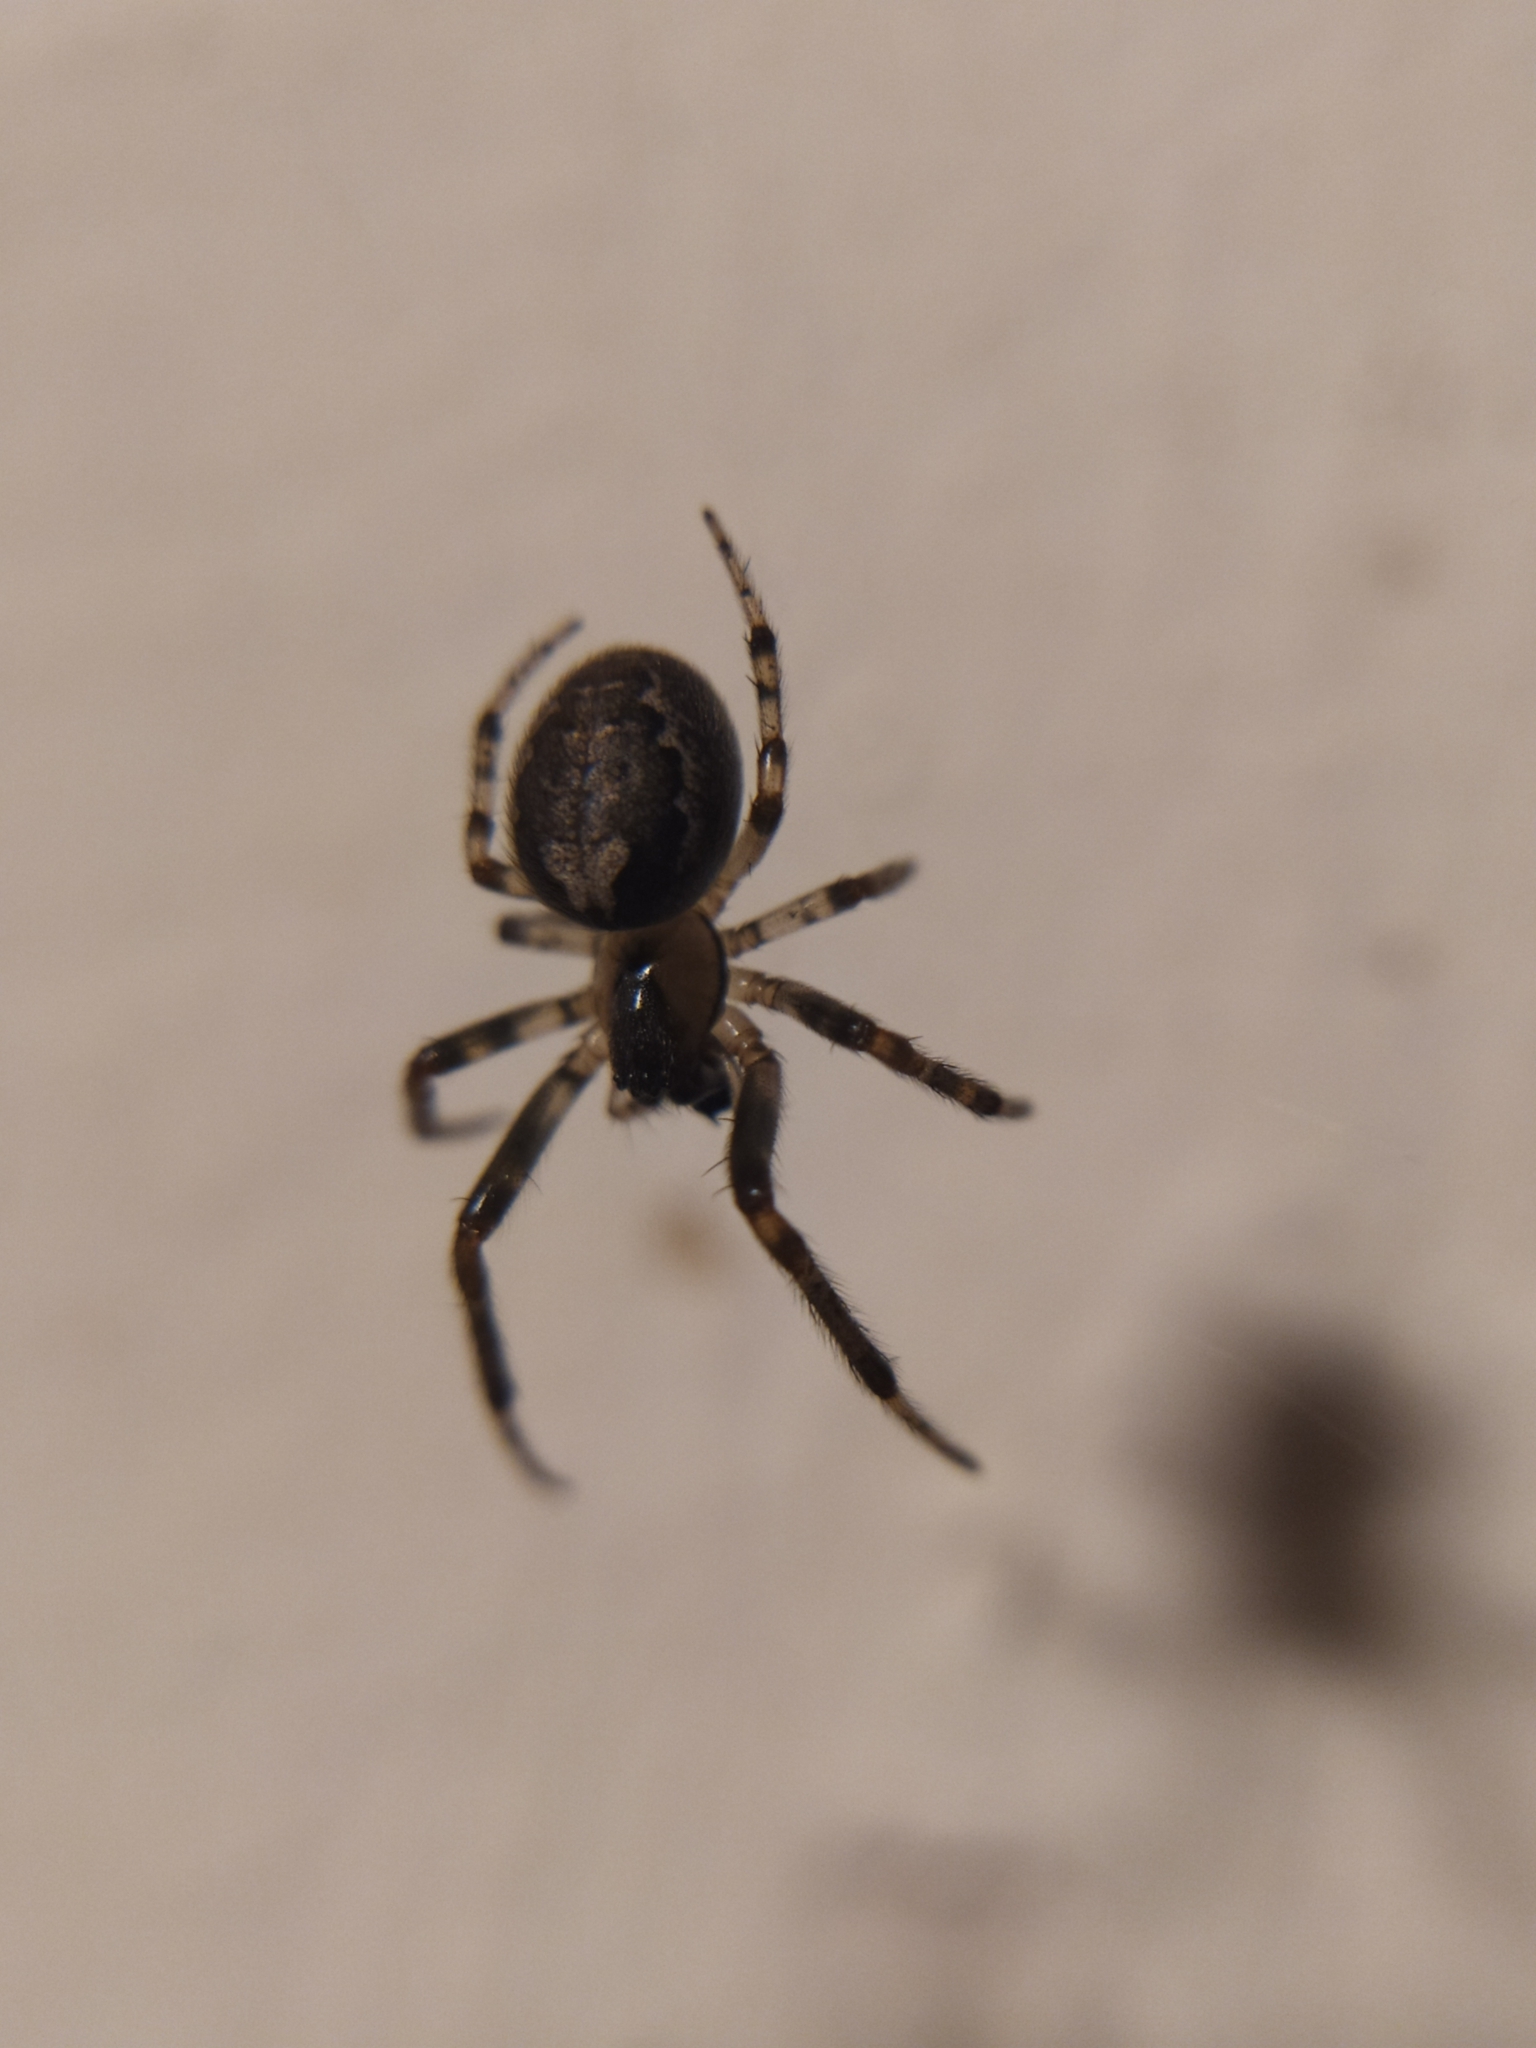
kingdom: Animalia
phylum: Arthropoda
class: Arachnida
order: Araneae
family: Araneidae
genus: Zygiella
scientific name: Zygiella x-notata
